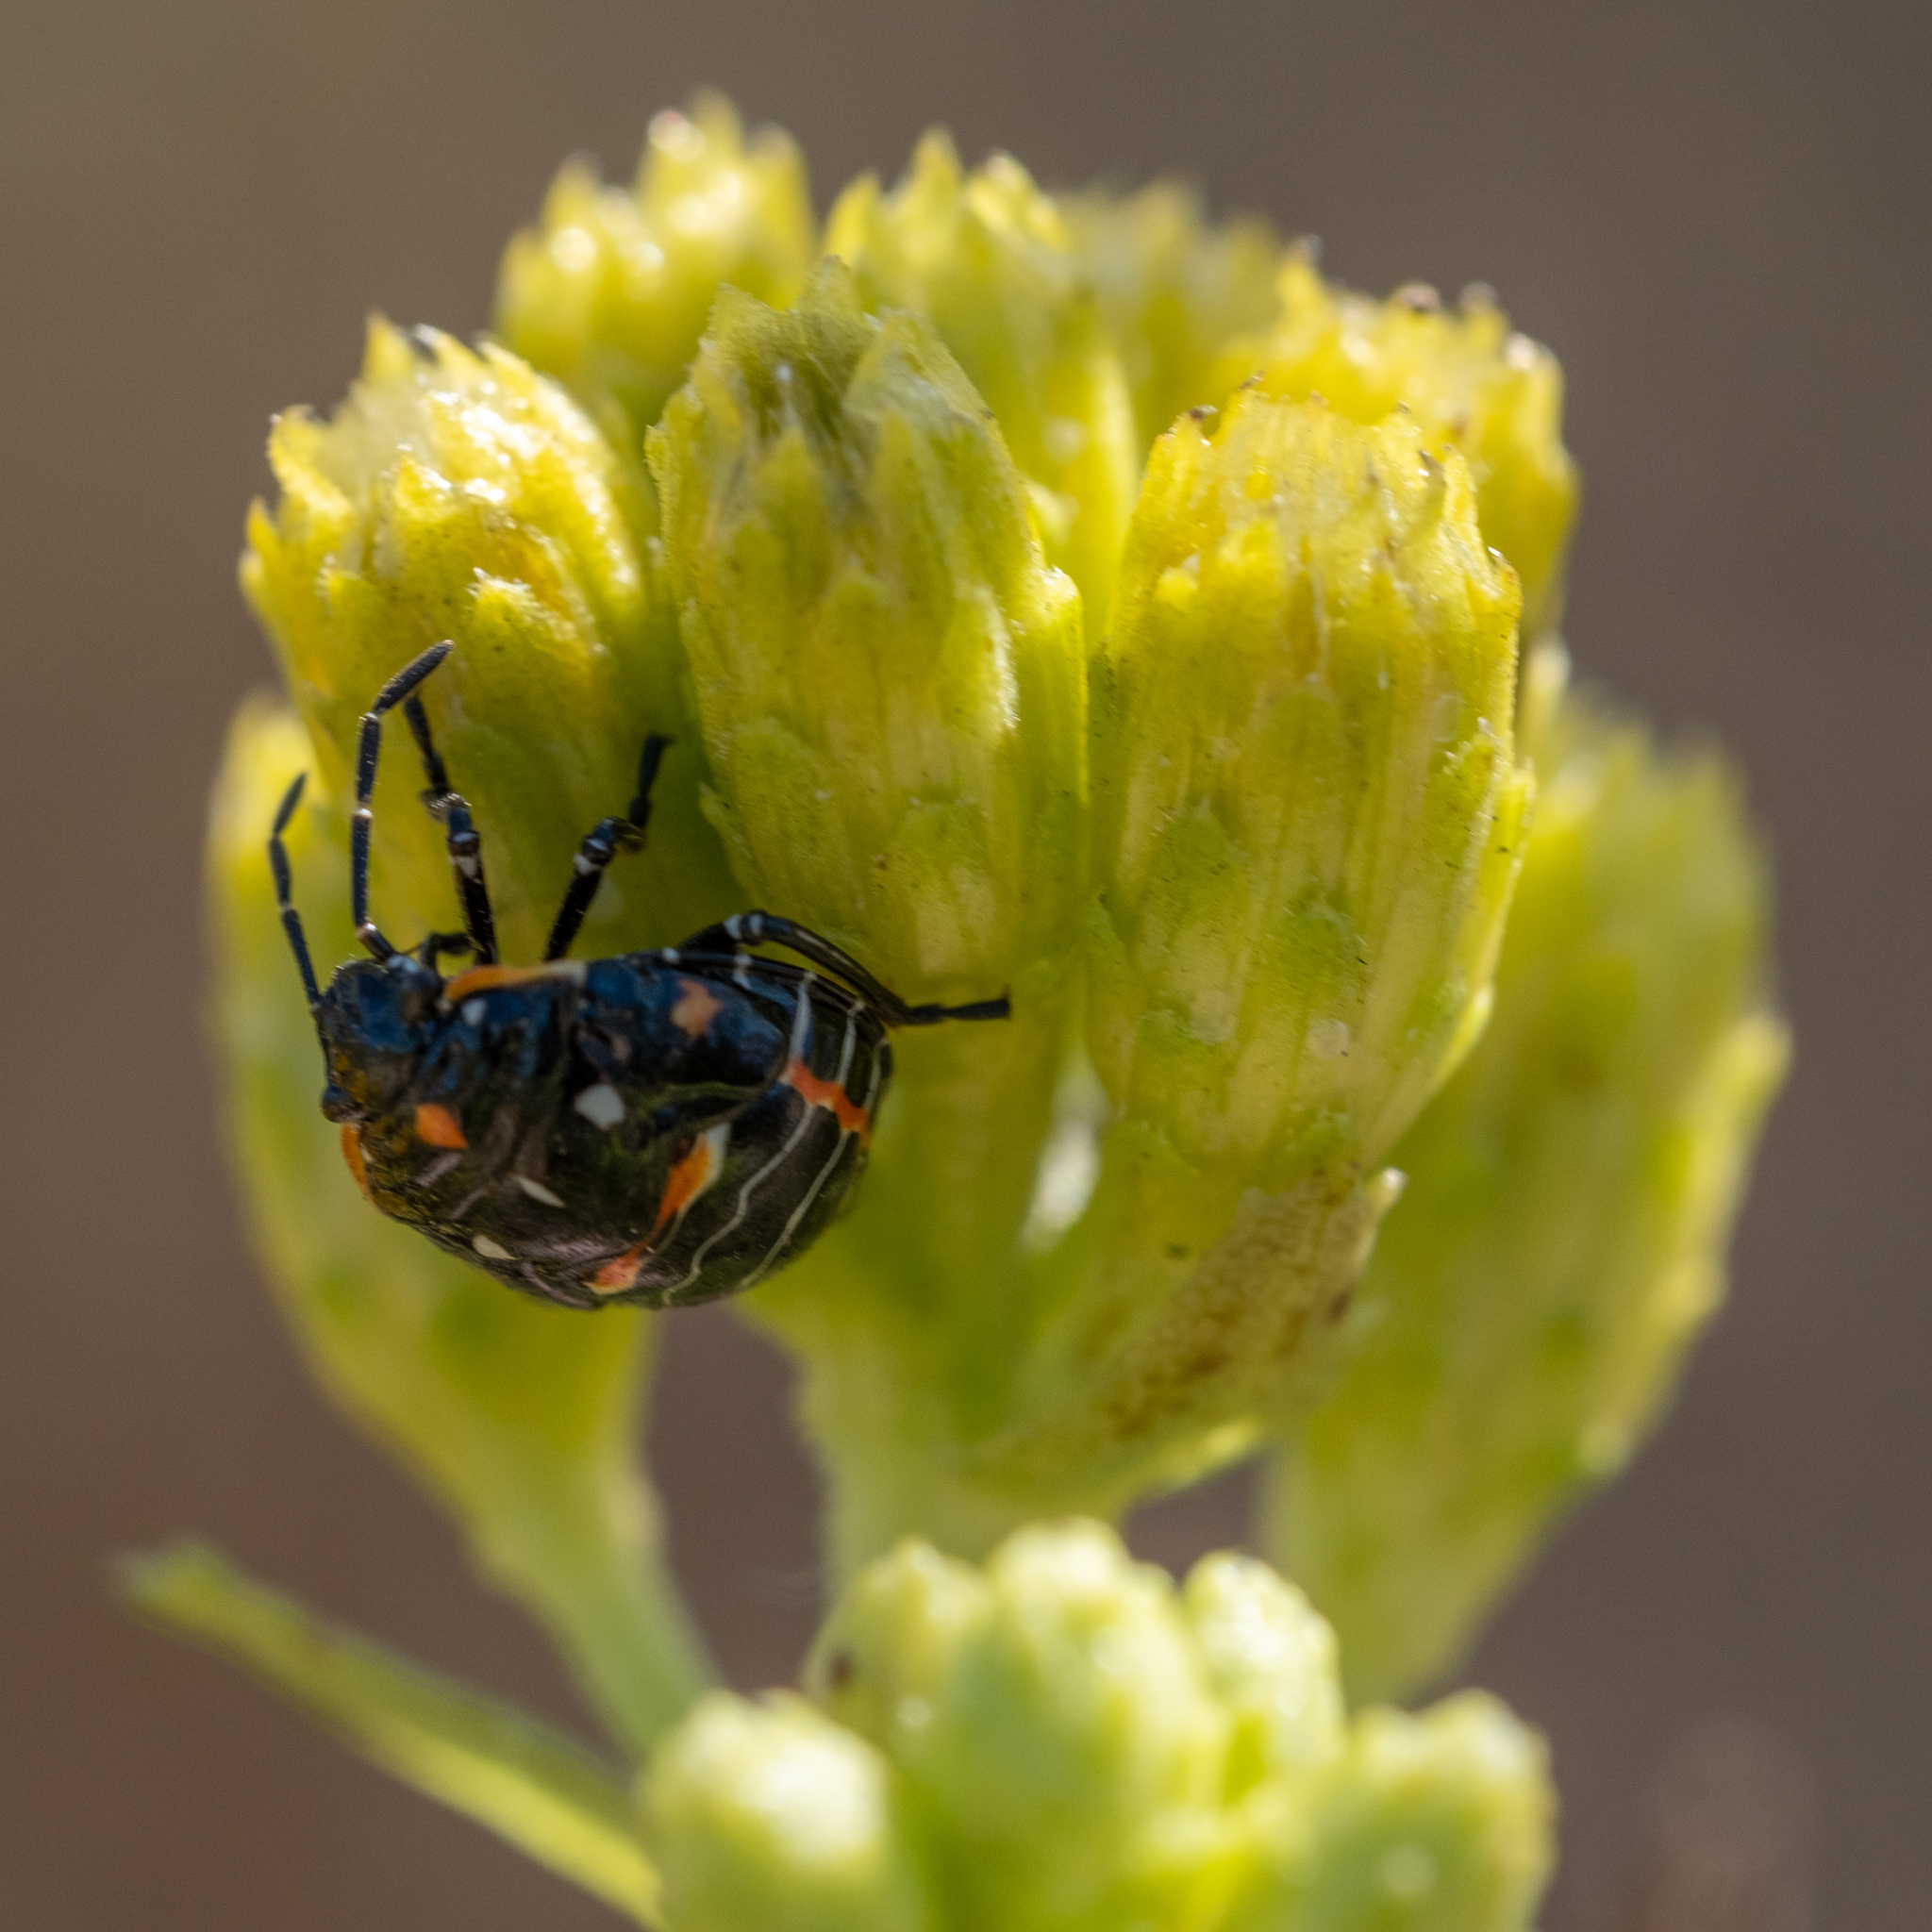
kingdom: Animalia
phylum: Arthropoda
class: Insecta
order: Hemiptera
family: Pentatomidae
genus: Murgantia
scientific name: Murgantia histrionica
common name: Harlequin bug
